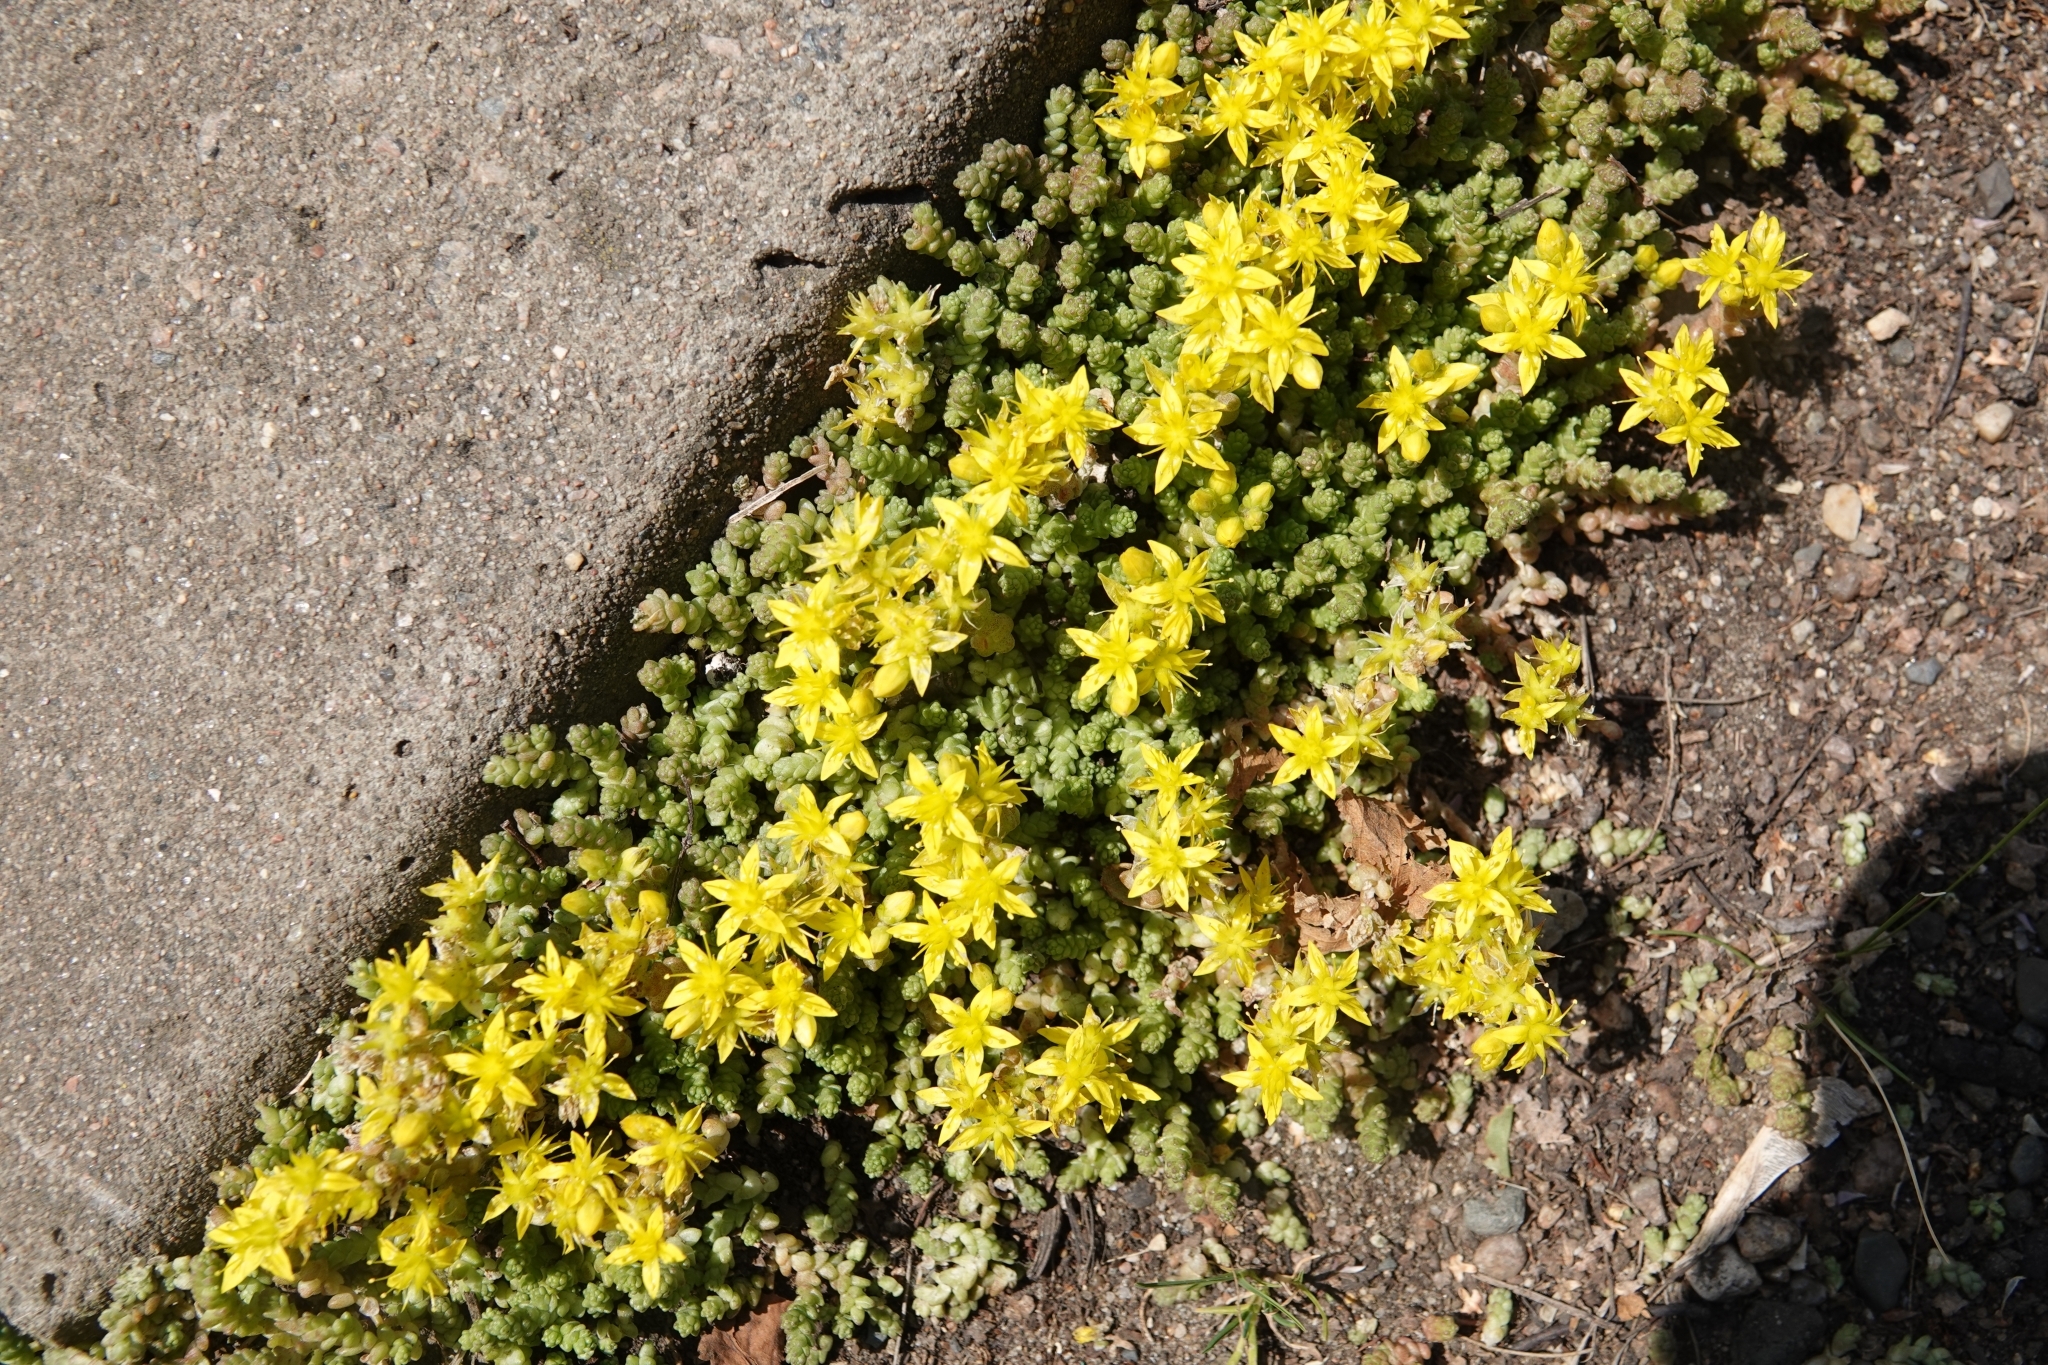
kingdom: Plantae
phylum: Tracheophyta
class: Magnoliopsida
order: Saxifragales
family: Crassulaceae
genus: Sedum
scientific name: Sedum acre
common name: Biting stonecrop
